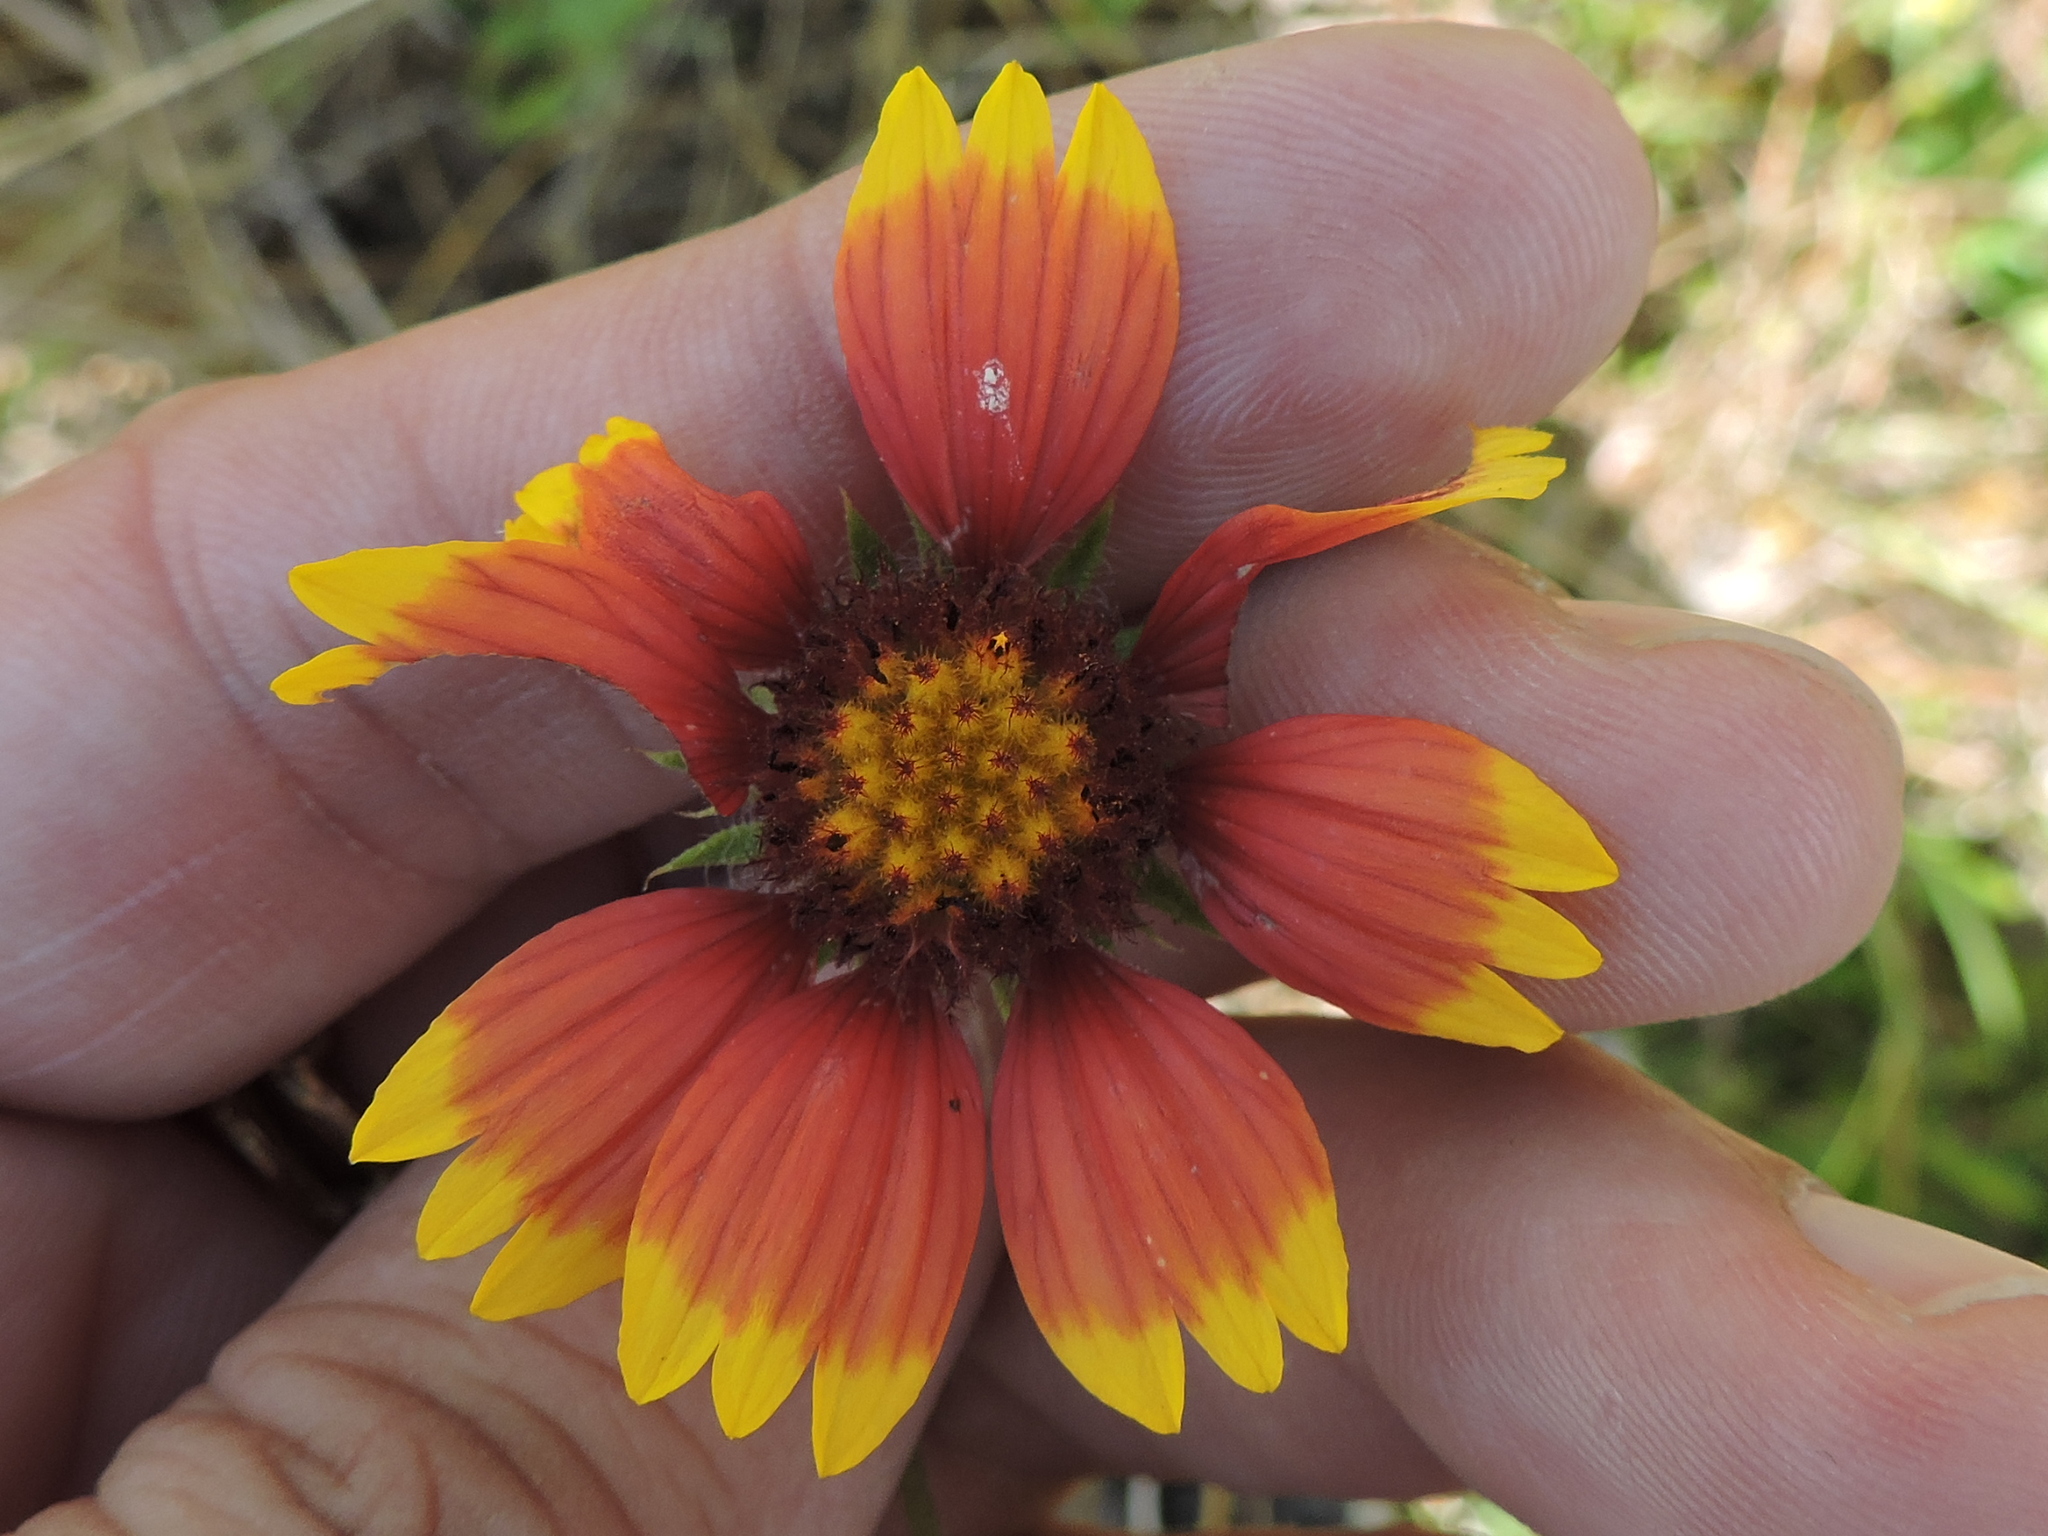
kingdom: Plantae
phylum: Tracheophyta
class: Magnoliopsida
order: Asterales
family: Asteraceae
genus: Gaillardia
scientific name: Gaillardia pulchella
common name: Firewheel
